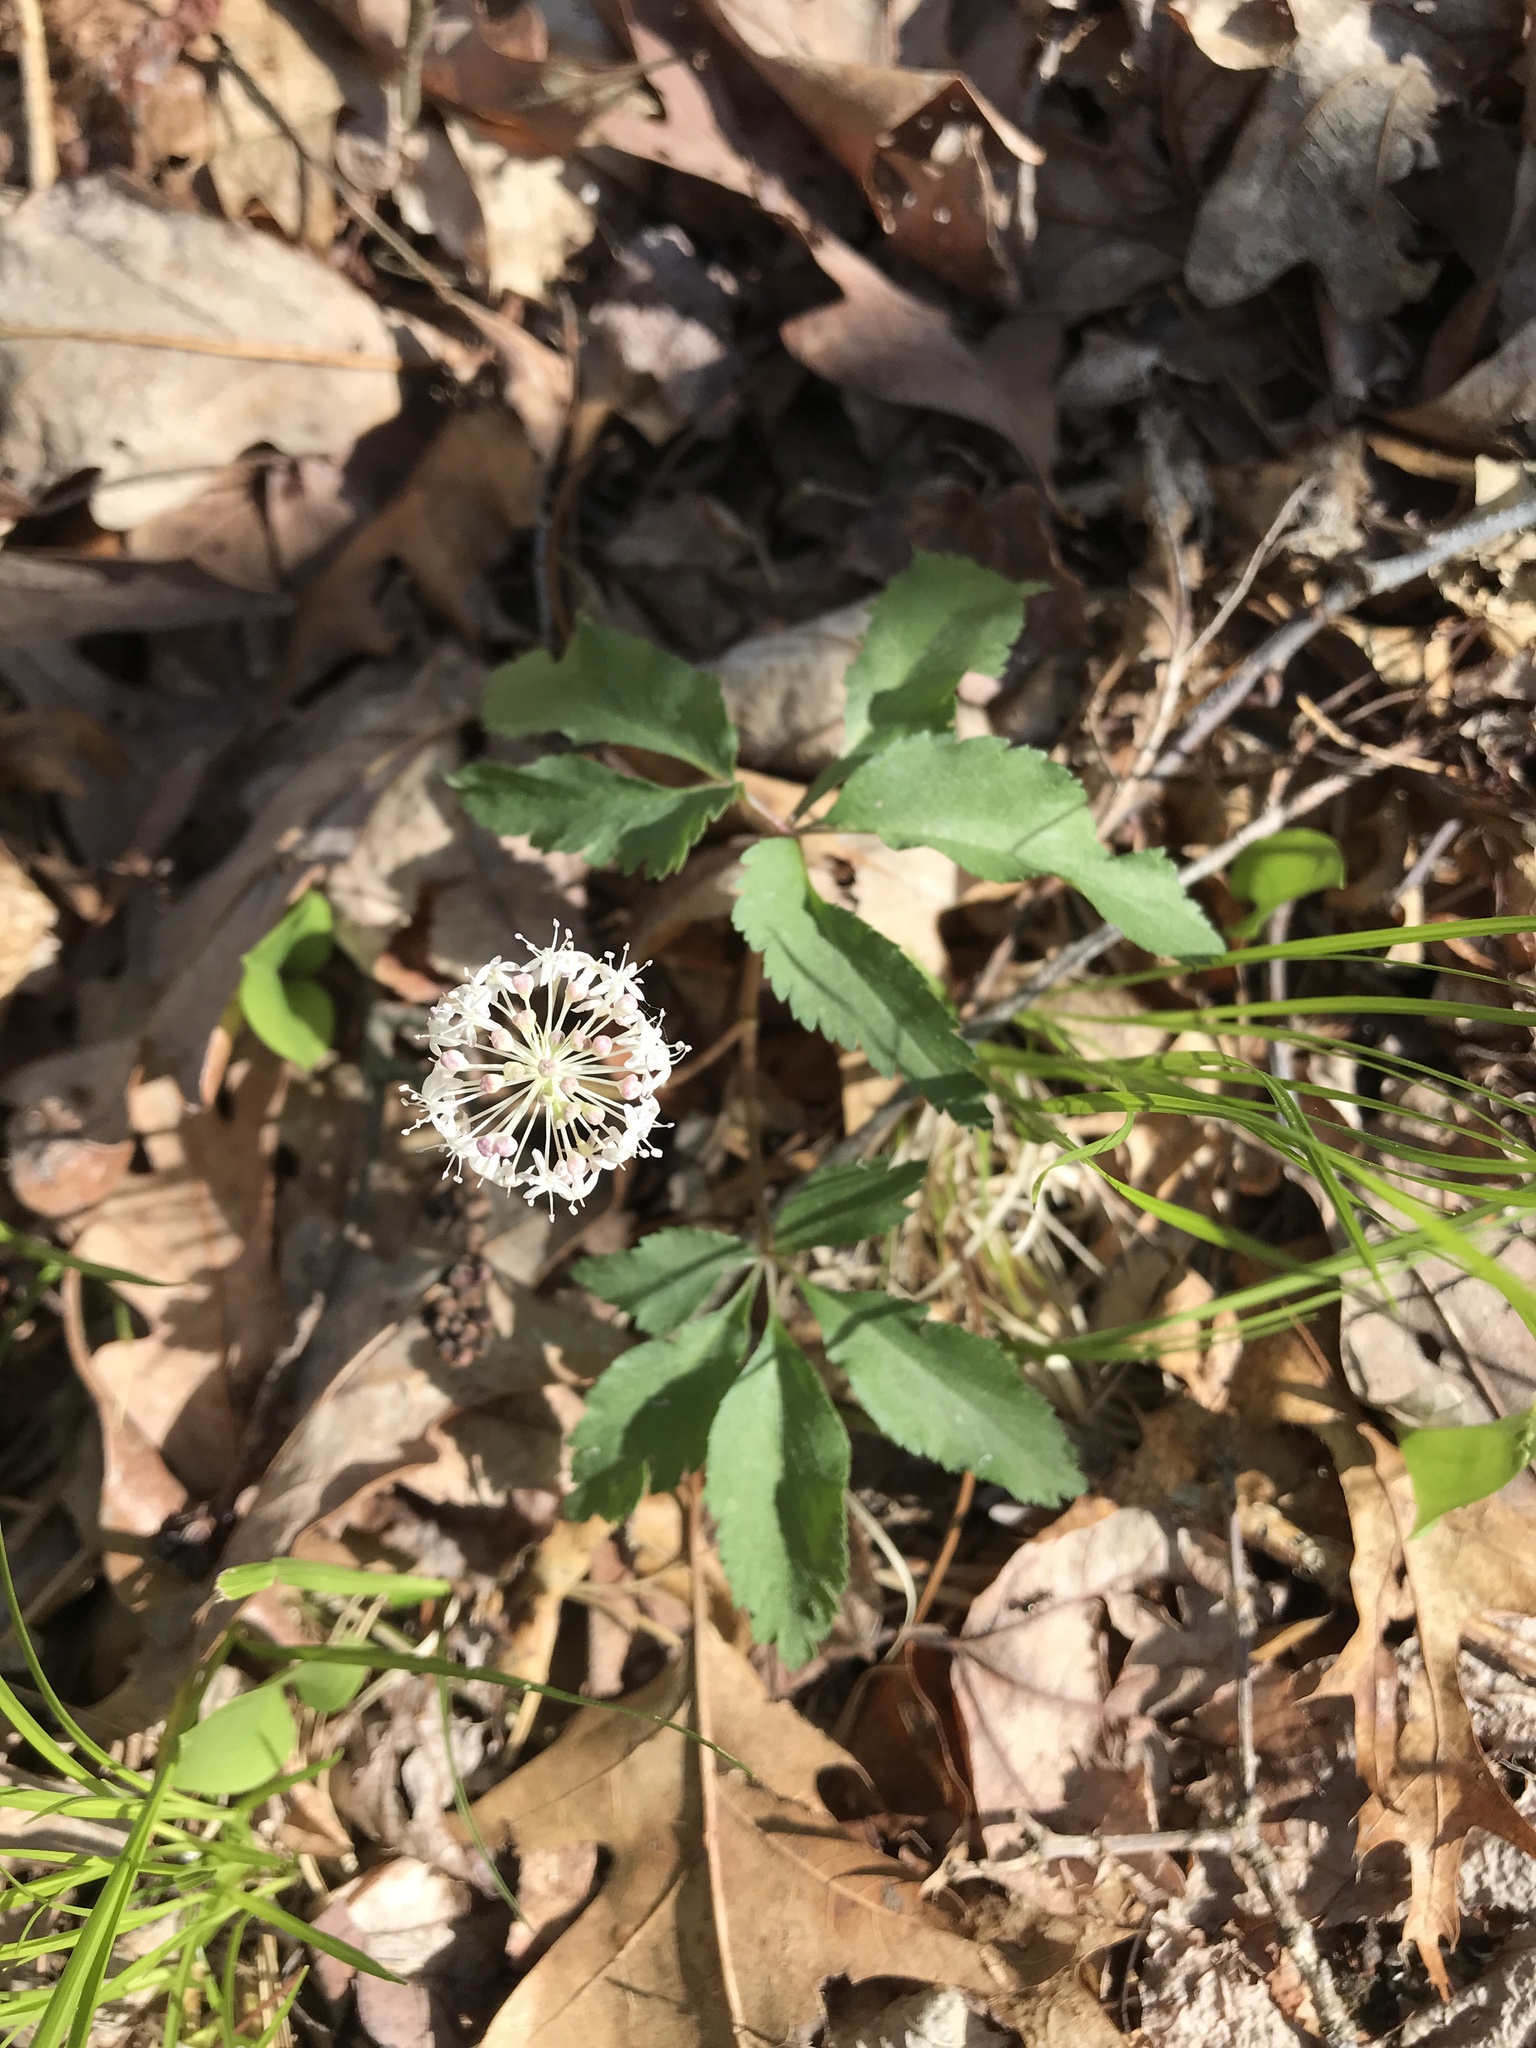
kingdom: Plantae
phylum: Tracheophyta
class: Magnoliopsida
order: Apiales
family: Araliaceae
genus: Panax
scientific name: Panax trifolius
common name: Dwarf ginseng
